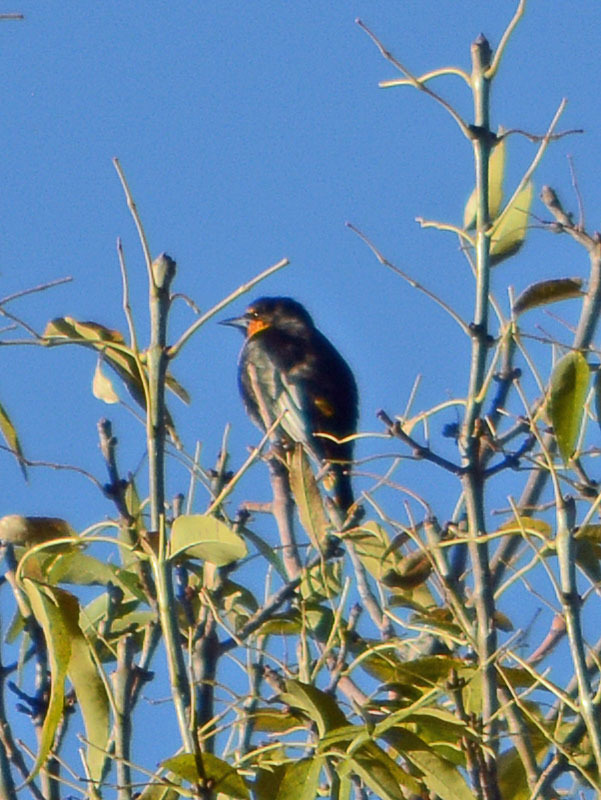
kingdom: Animalia
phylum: Chordata
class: Aves
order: Passeriformes
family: Icteridae
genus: Icterus
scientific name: Icterus abeillei
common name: Black-backed oriole
